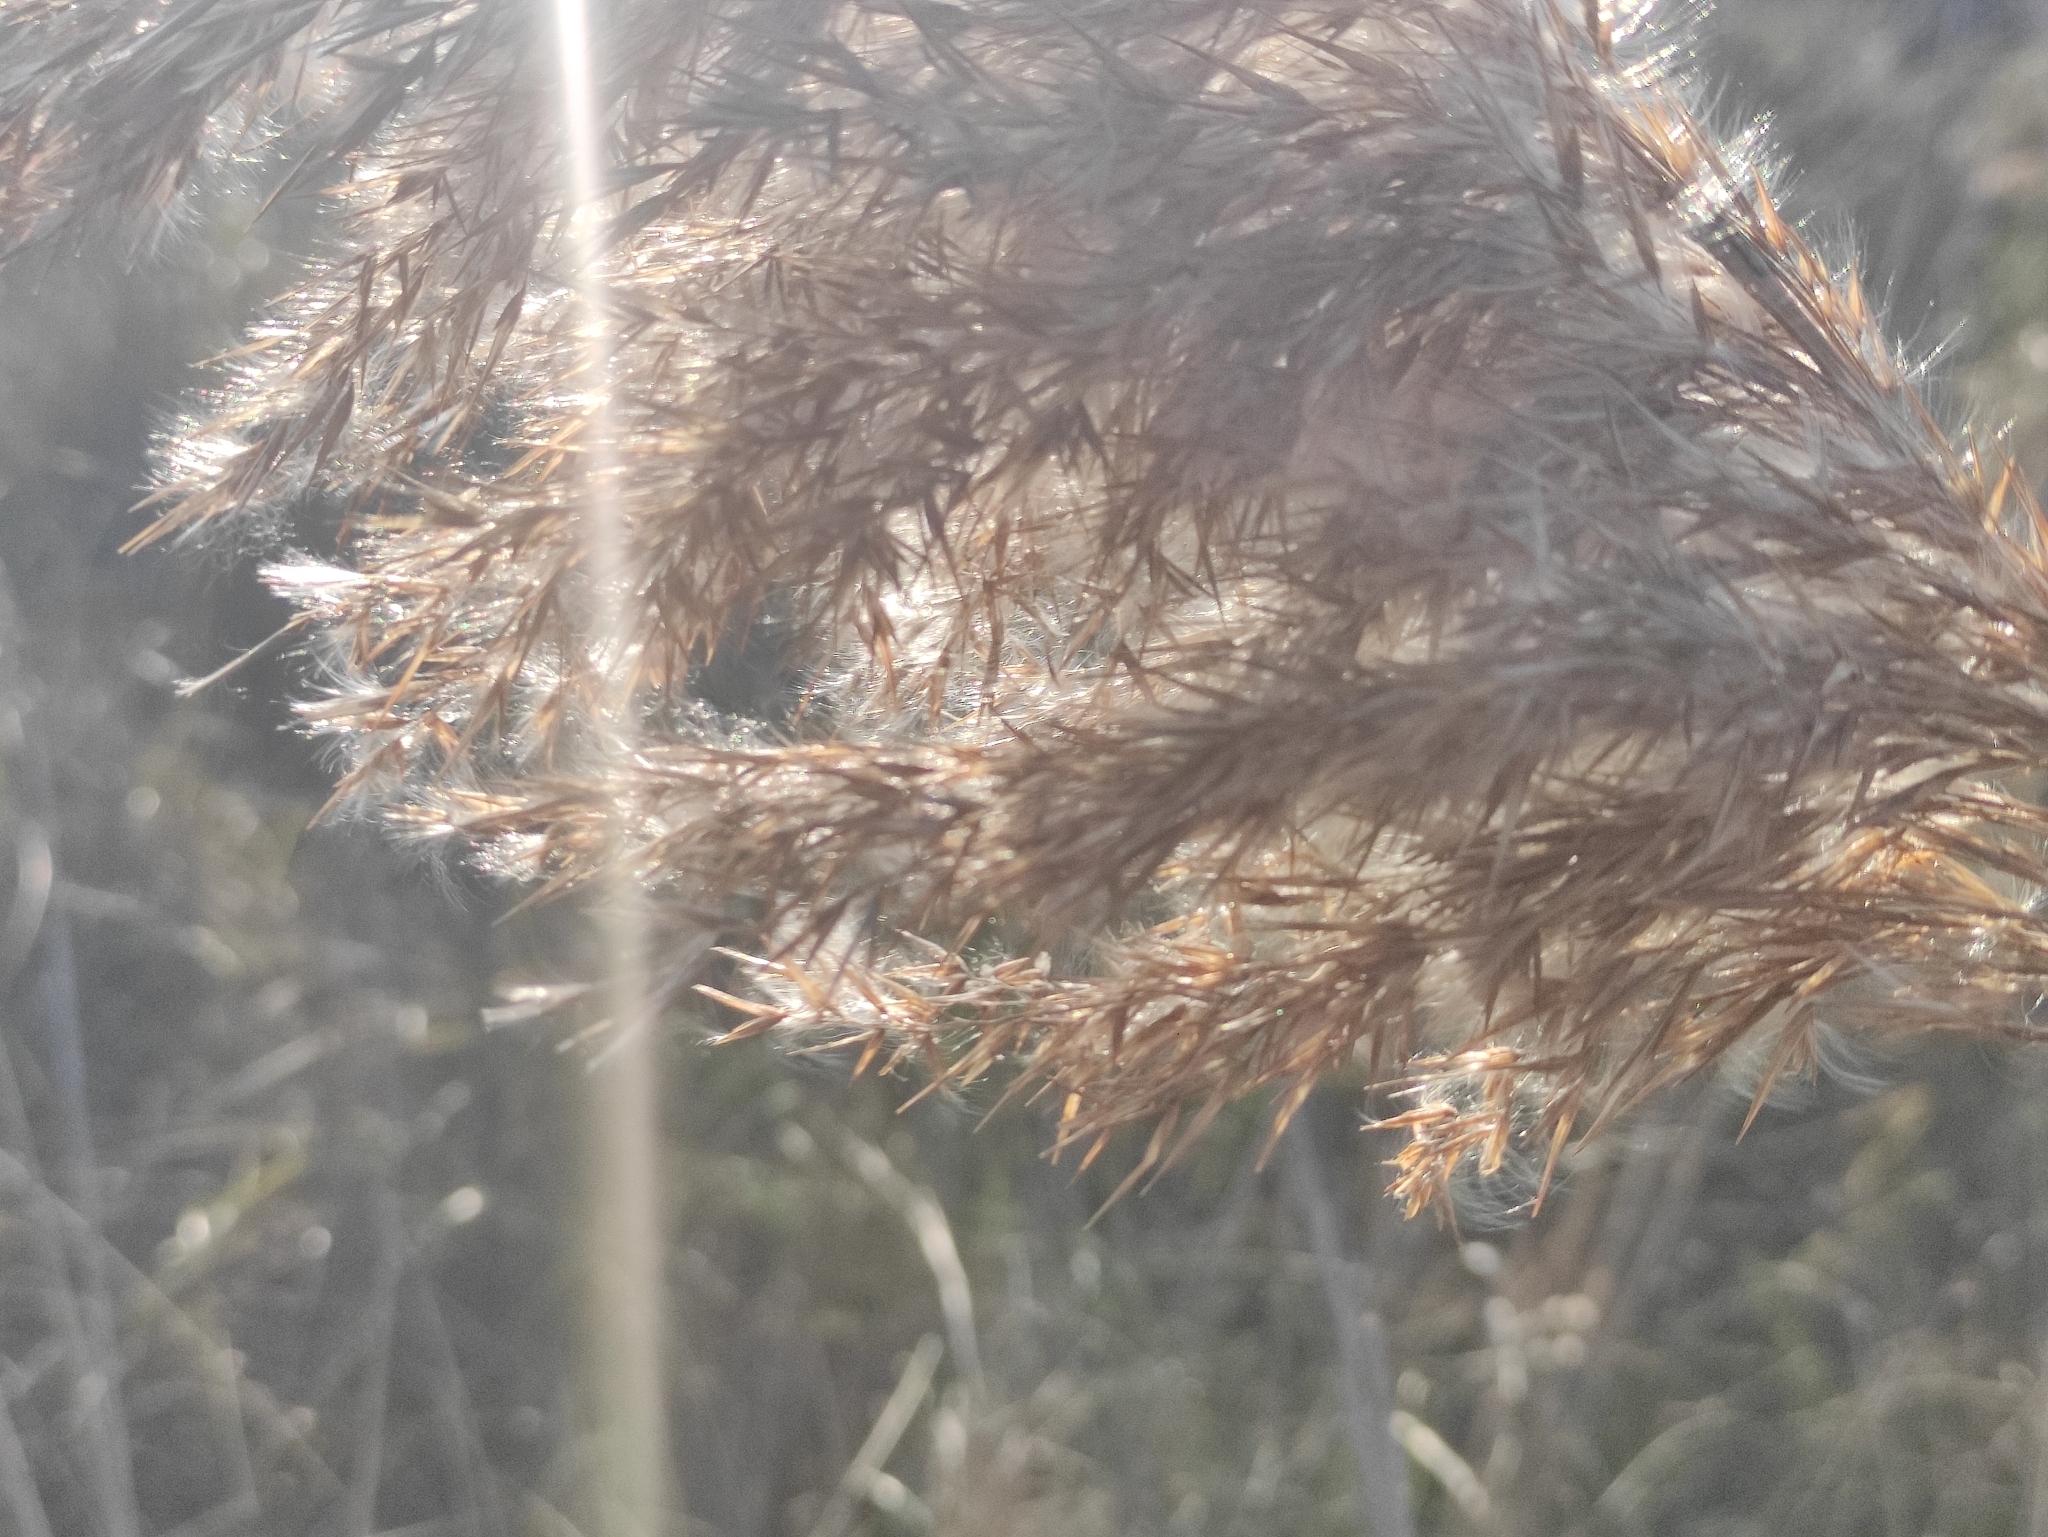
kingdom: Plantae
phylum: Tracheophyta
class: Liliopsida
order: Poales
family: Poaceae
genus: Phragmites
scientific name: Phragmites australis
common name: Common reed
